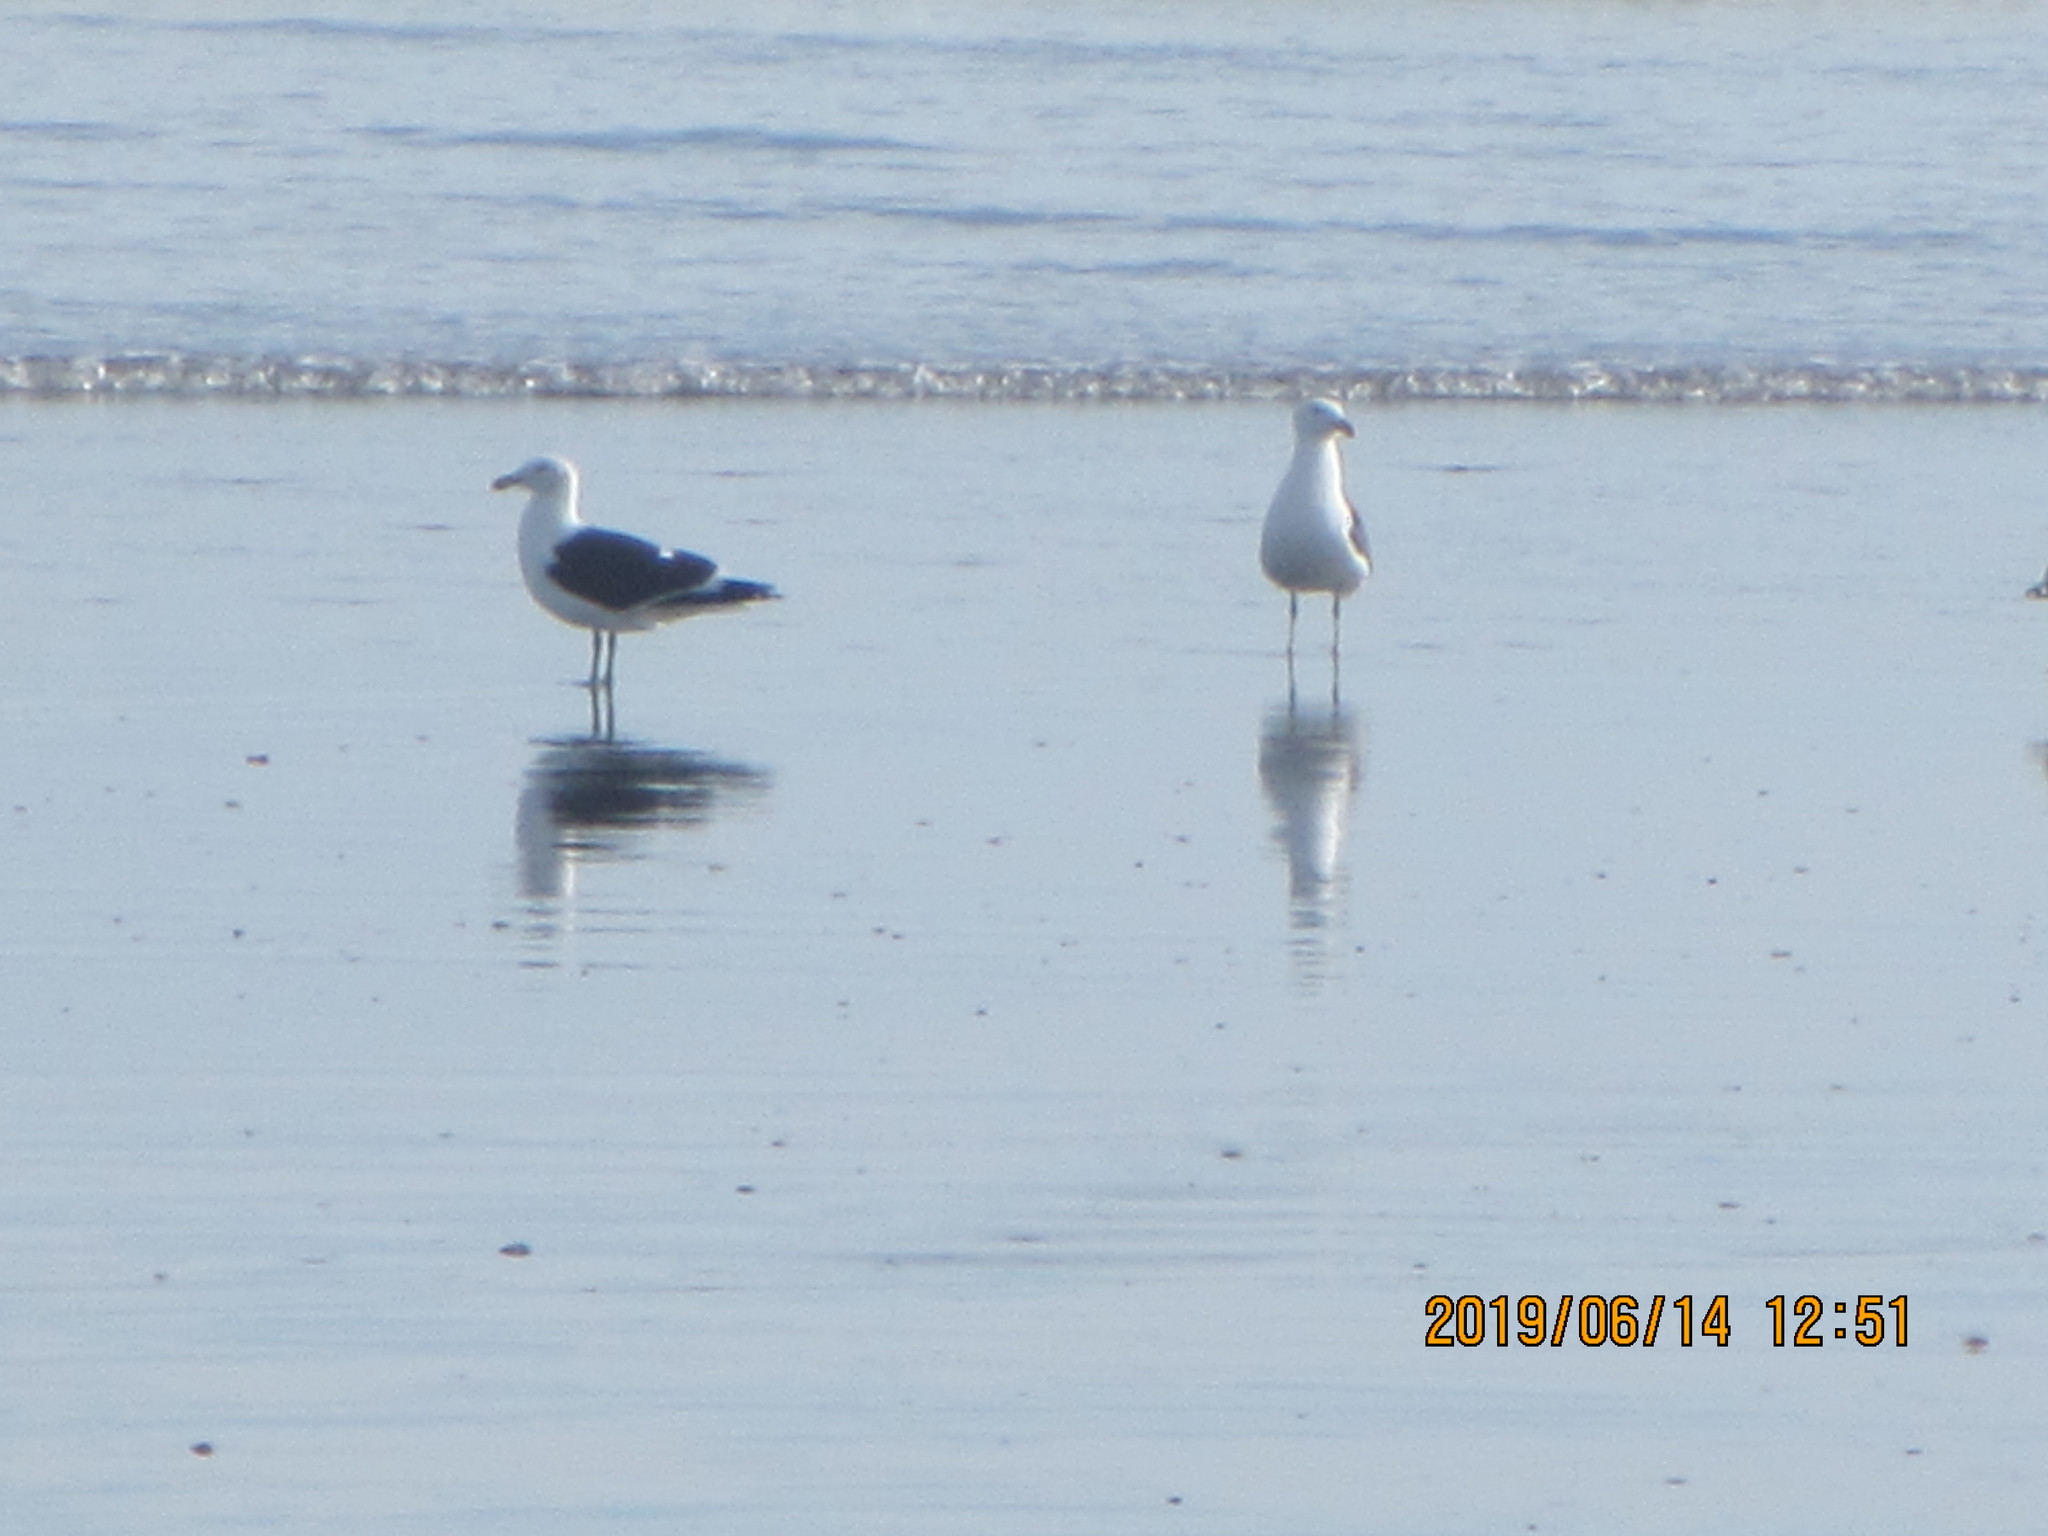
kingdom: Animalia
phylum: Chordata
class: Aves
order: Charadriiformes
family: Laridae
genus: Larus
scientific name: Larus dominicanus
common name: Kelp gull
